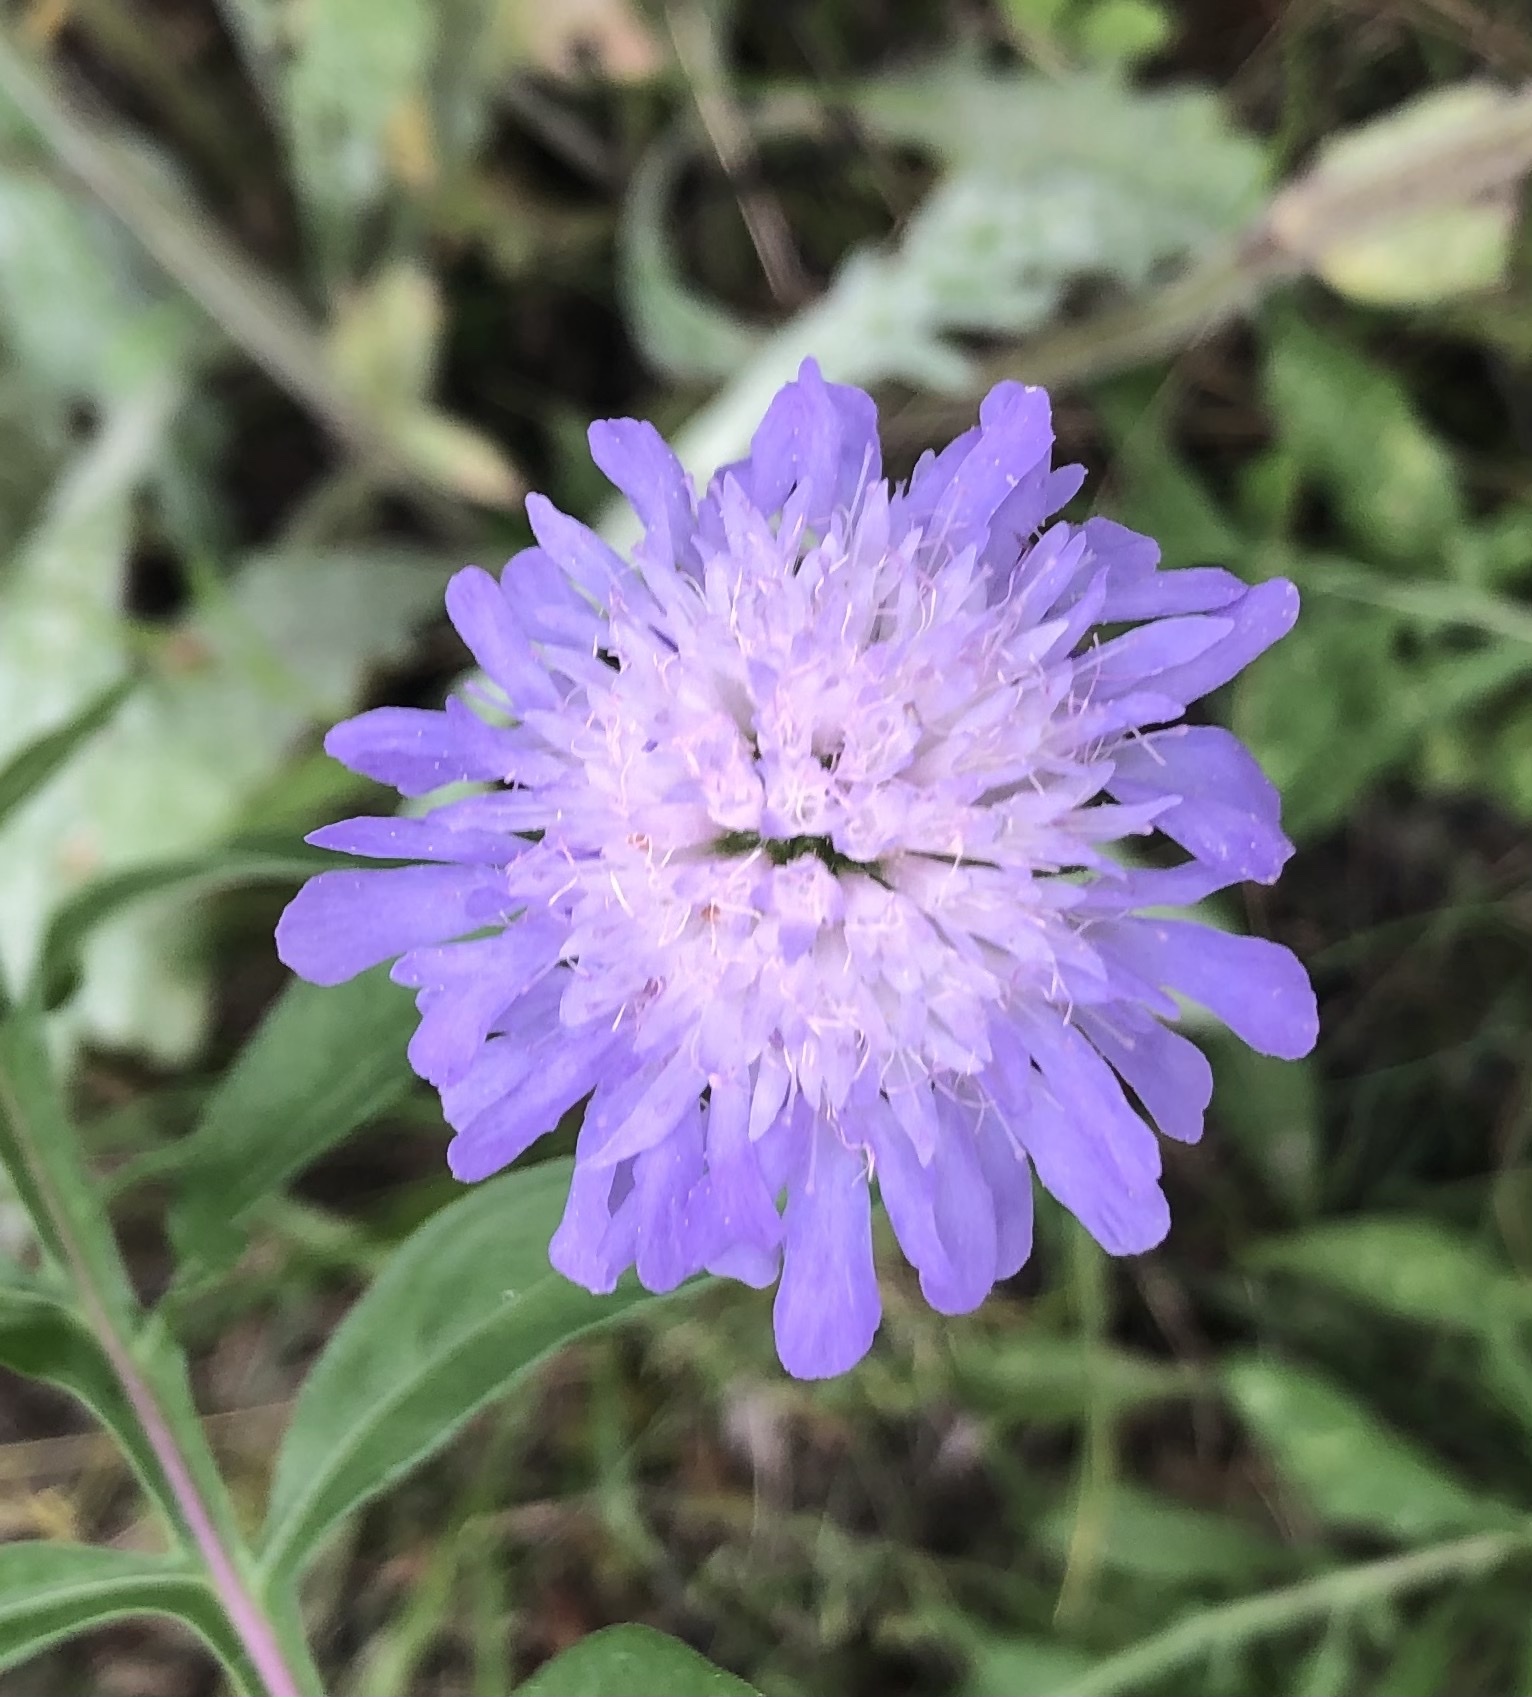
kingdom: Plantae
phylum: Tracheophyta
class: Magnoliopsida
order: Dipsacales
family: Caprifoliaceae
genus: Knautia
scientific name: Knautia arvensis
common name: Field scabiosa
